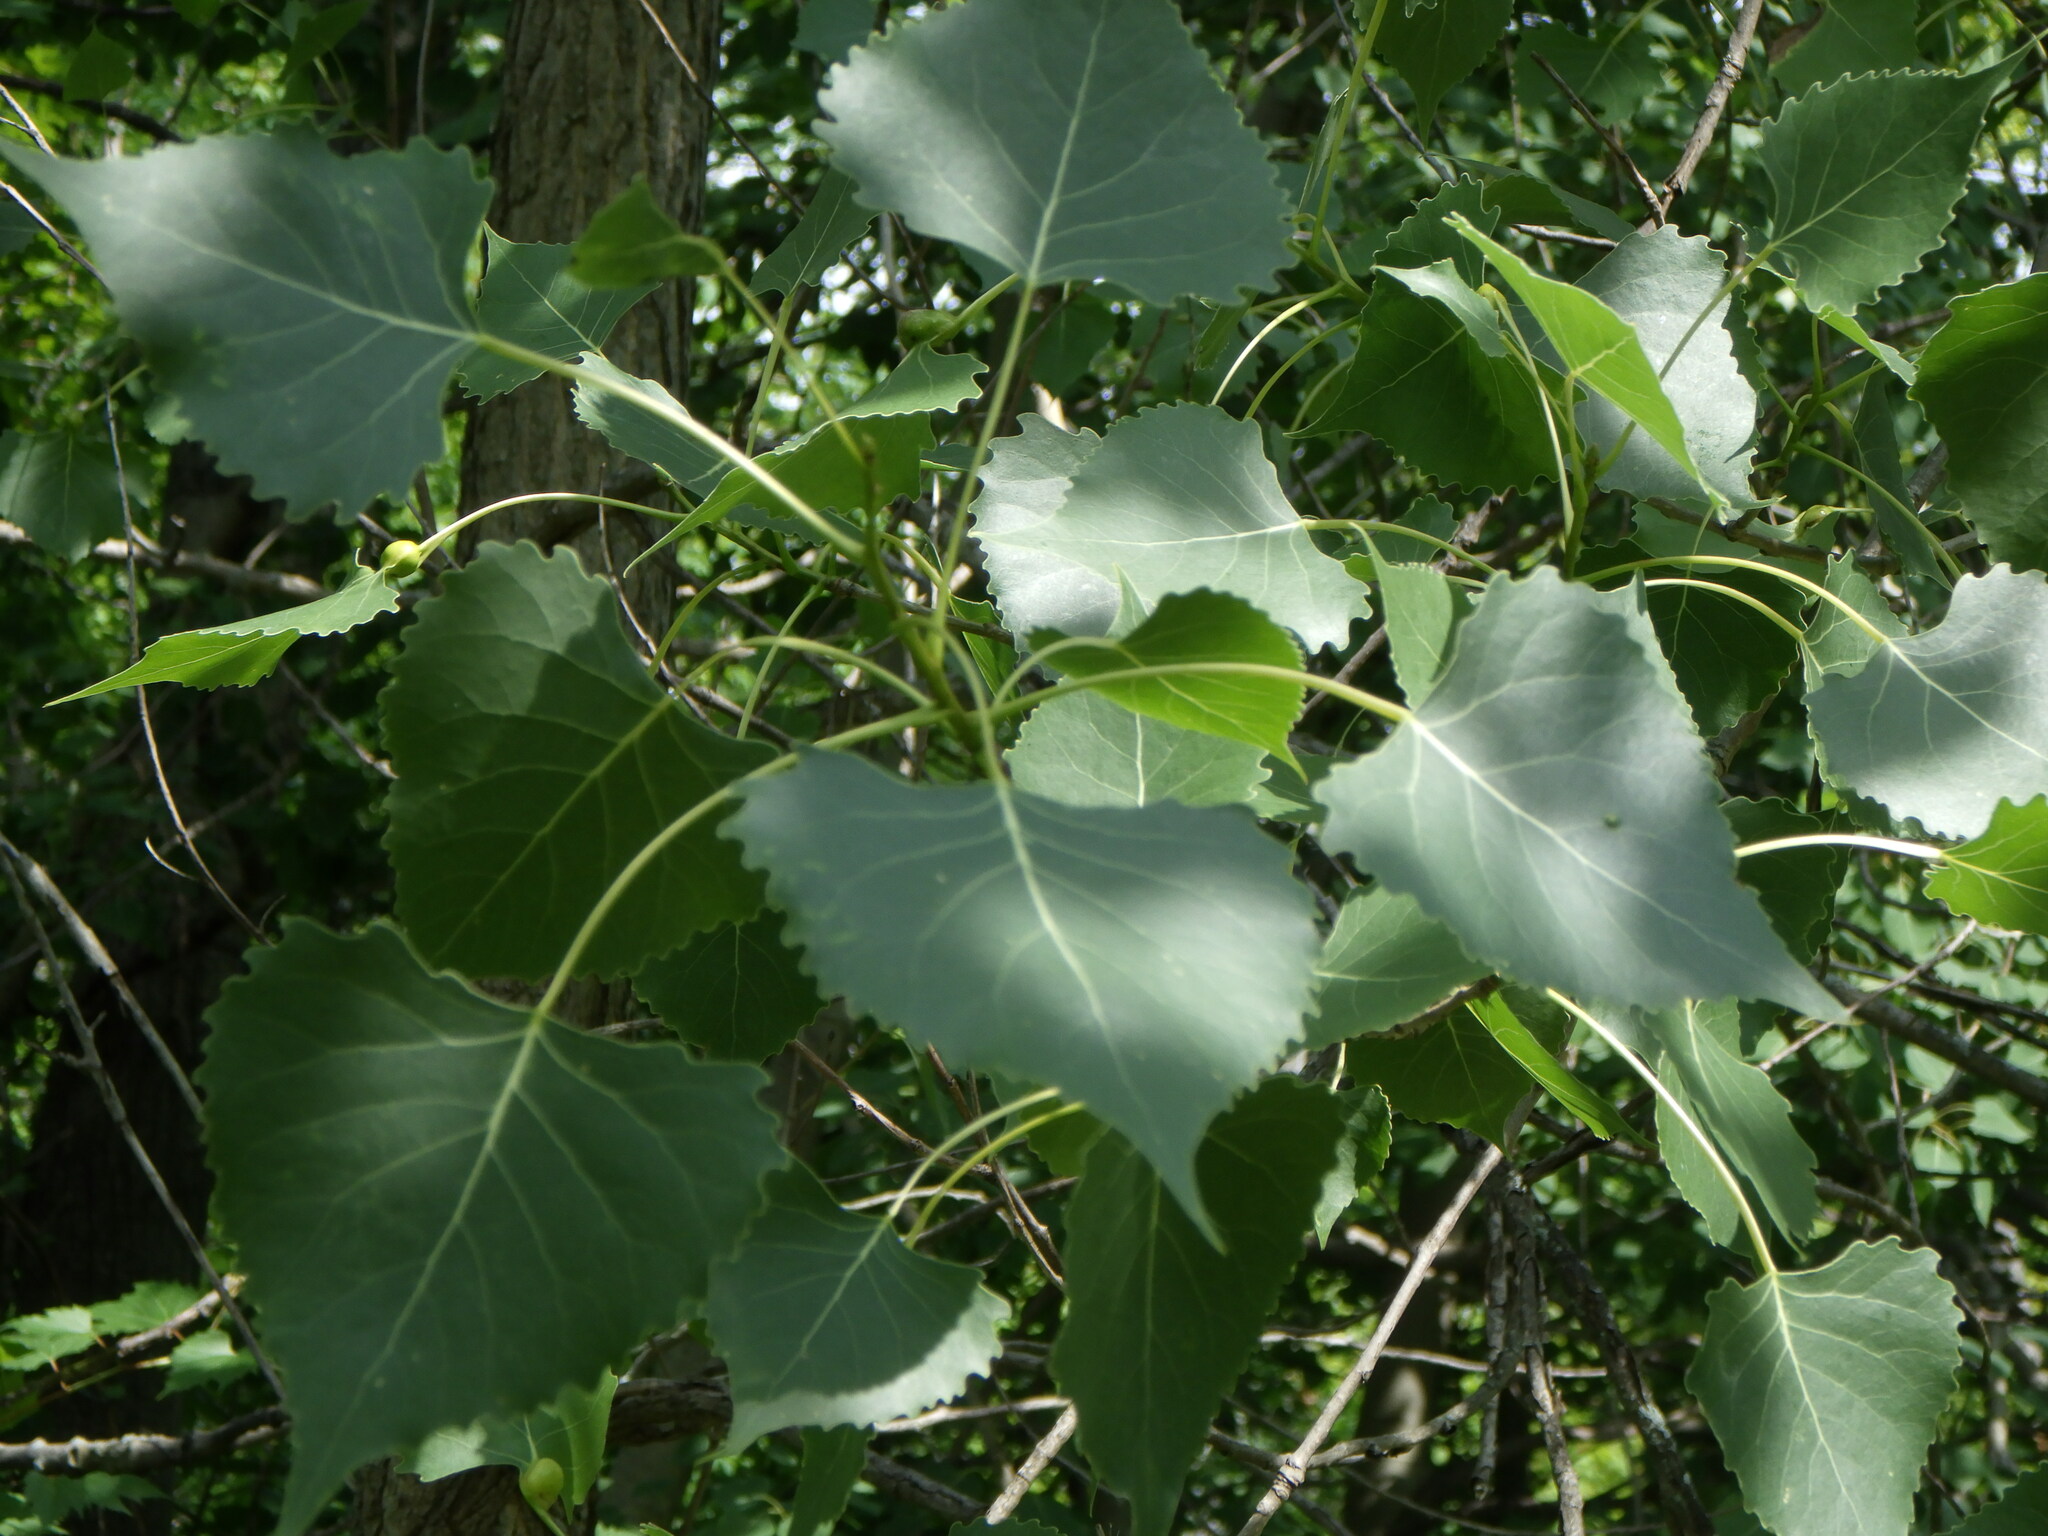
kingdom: Plantae
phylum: Tracheophyta
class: Magnoliopsida
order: Malpighiales
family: Salicaceae
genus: Populus
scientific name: Populus deltoides
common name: Eastern cottonwood
